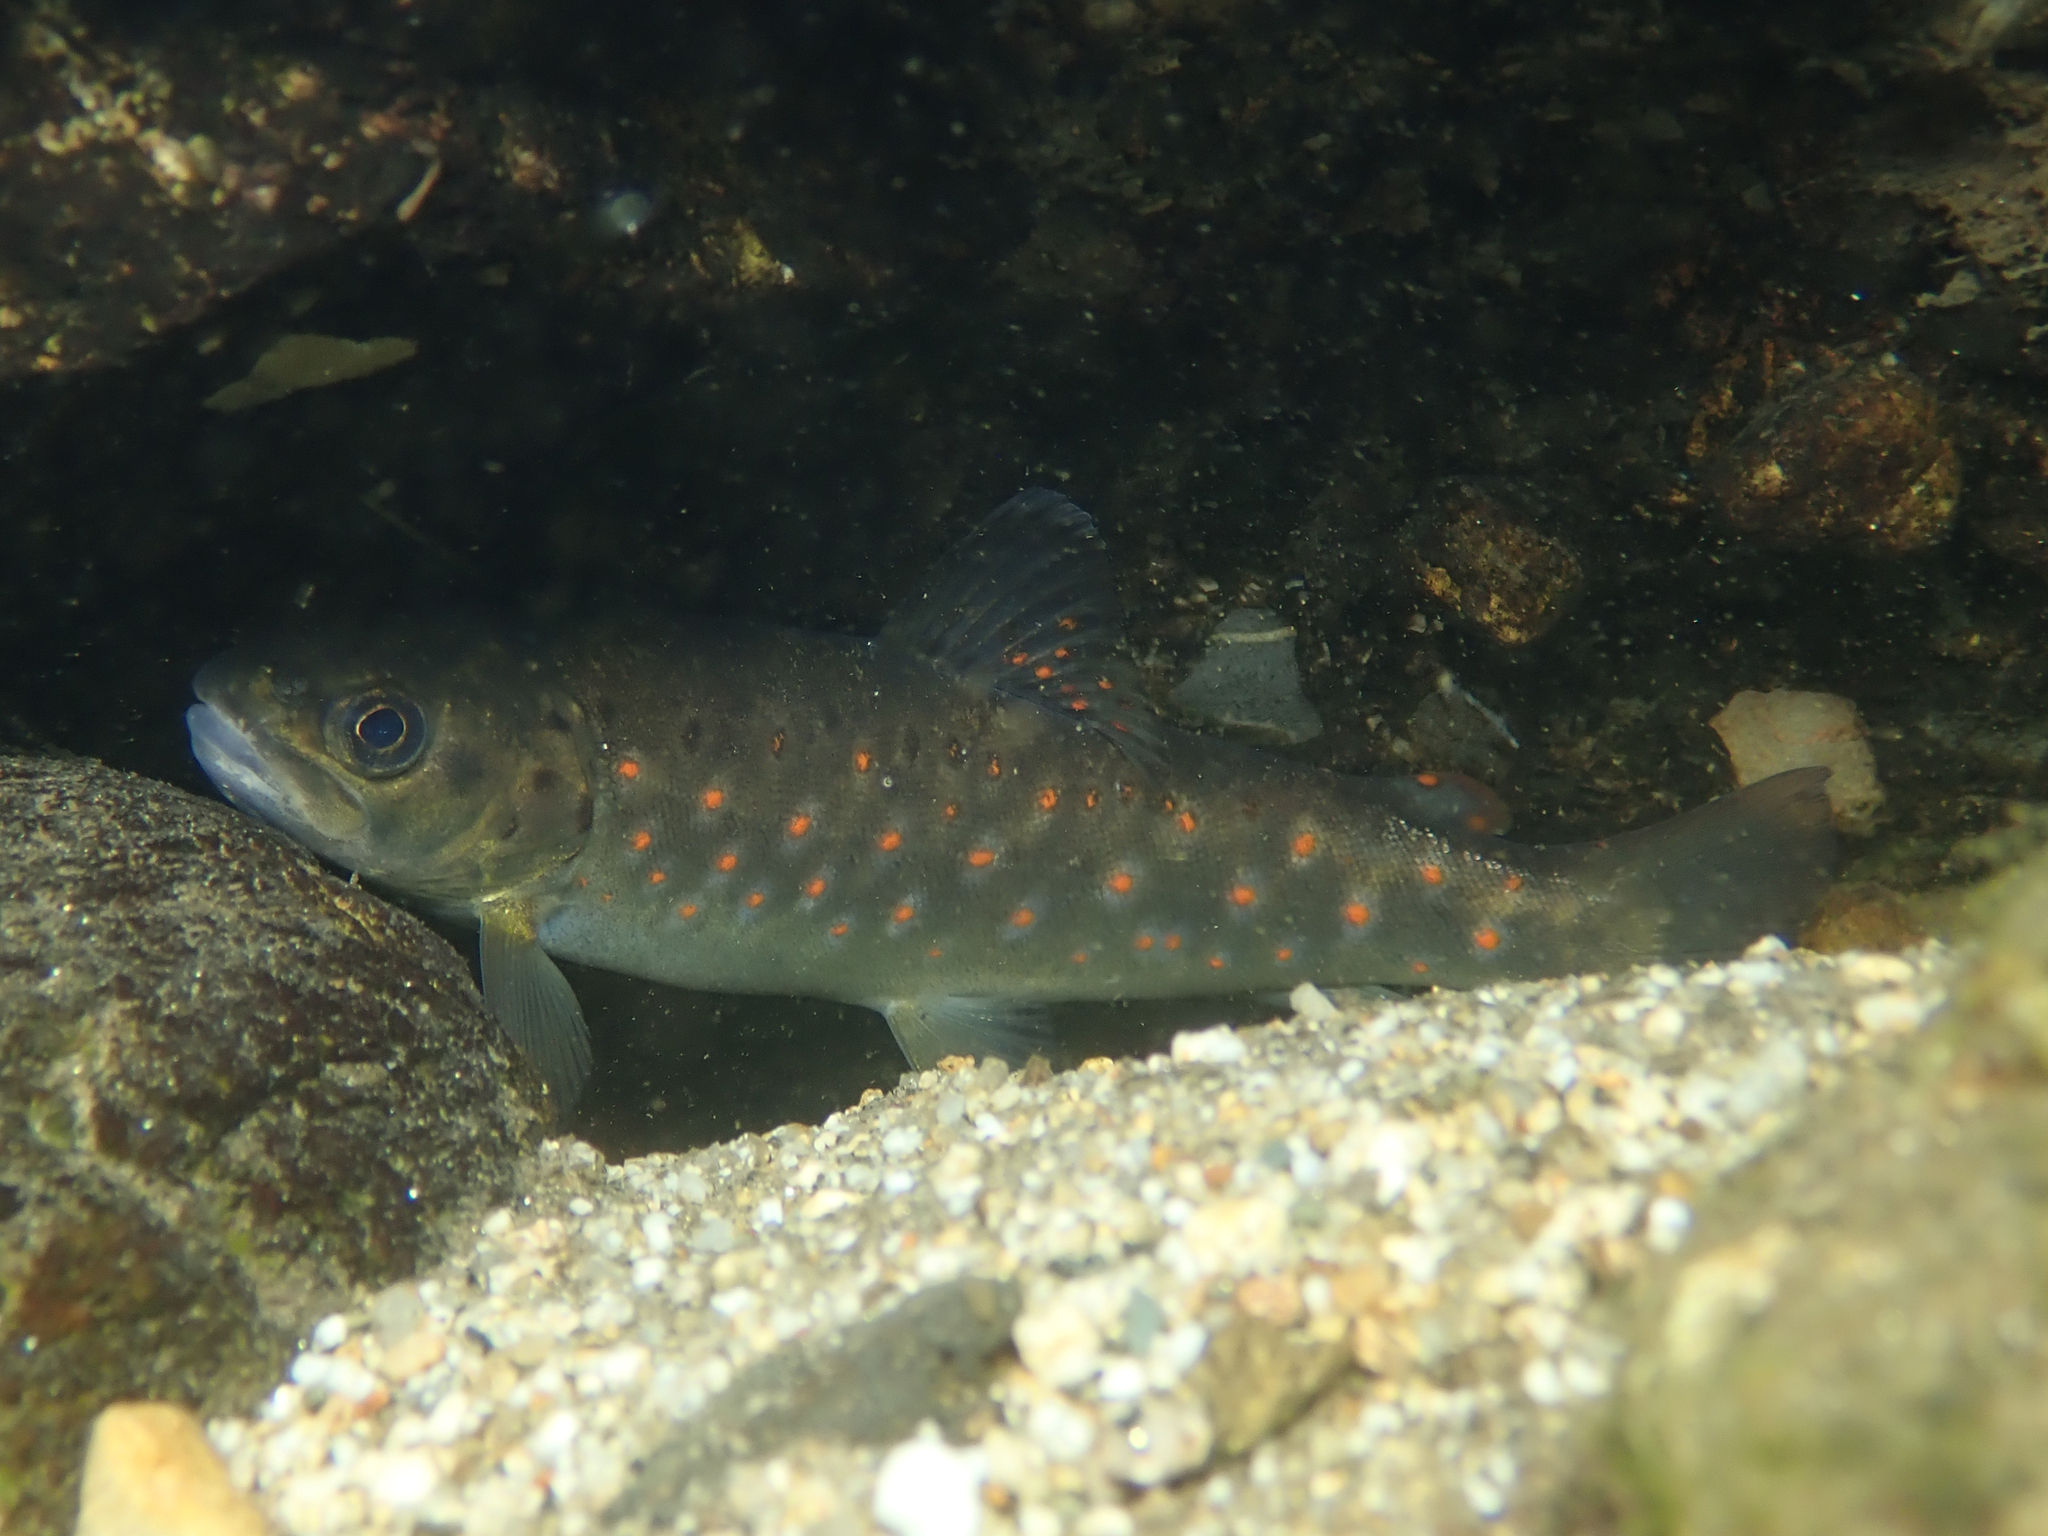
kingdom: Animalia
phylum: Chordata
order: Salmoniformes
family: Salmonidae
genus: Salmo
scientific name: Salmo trutta
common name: Brown trout
